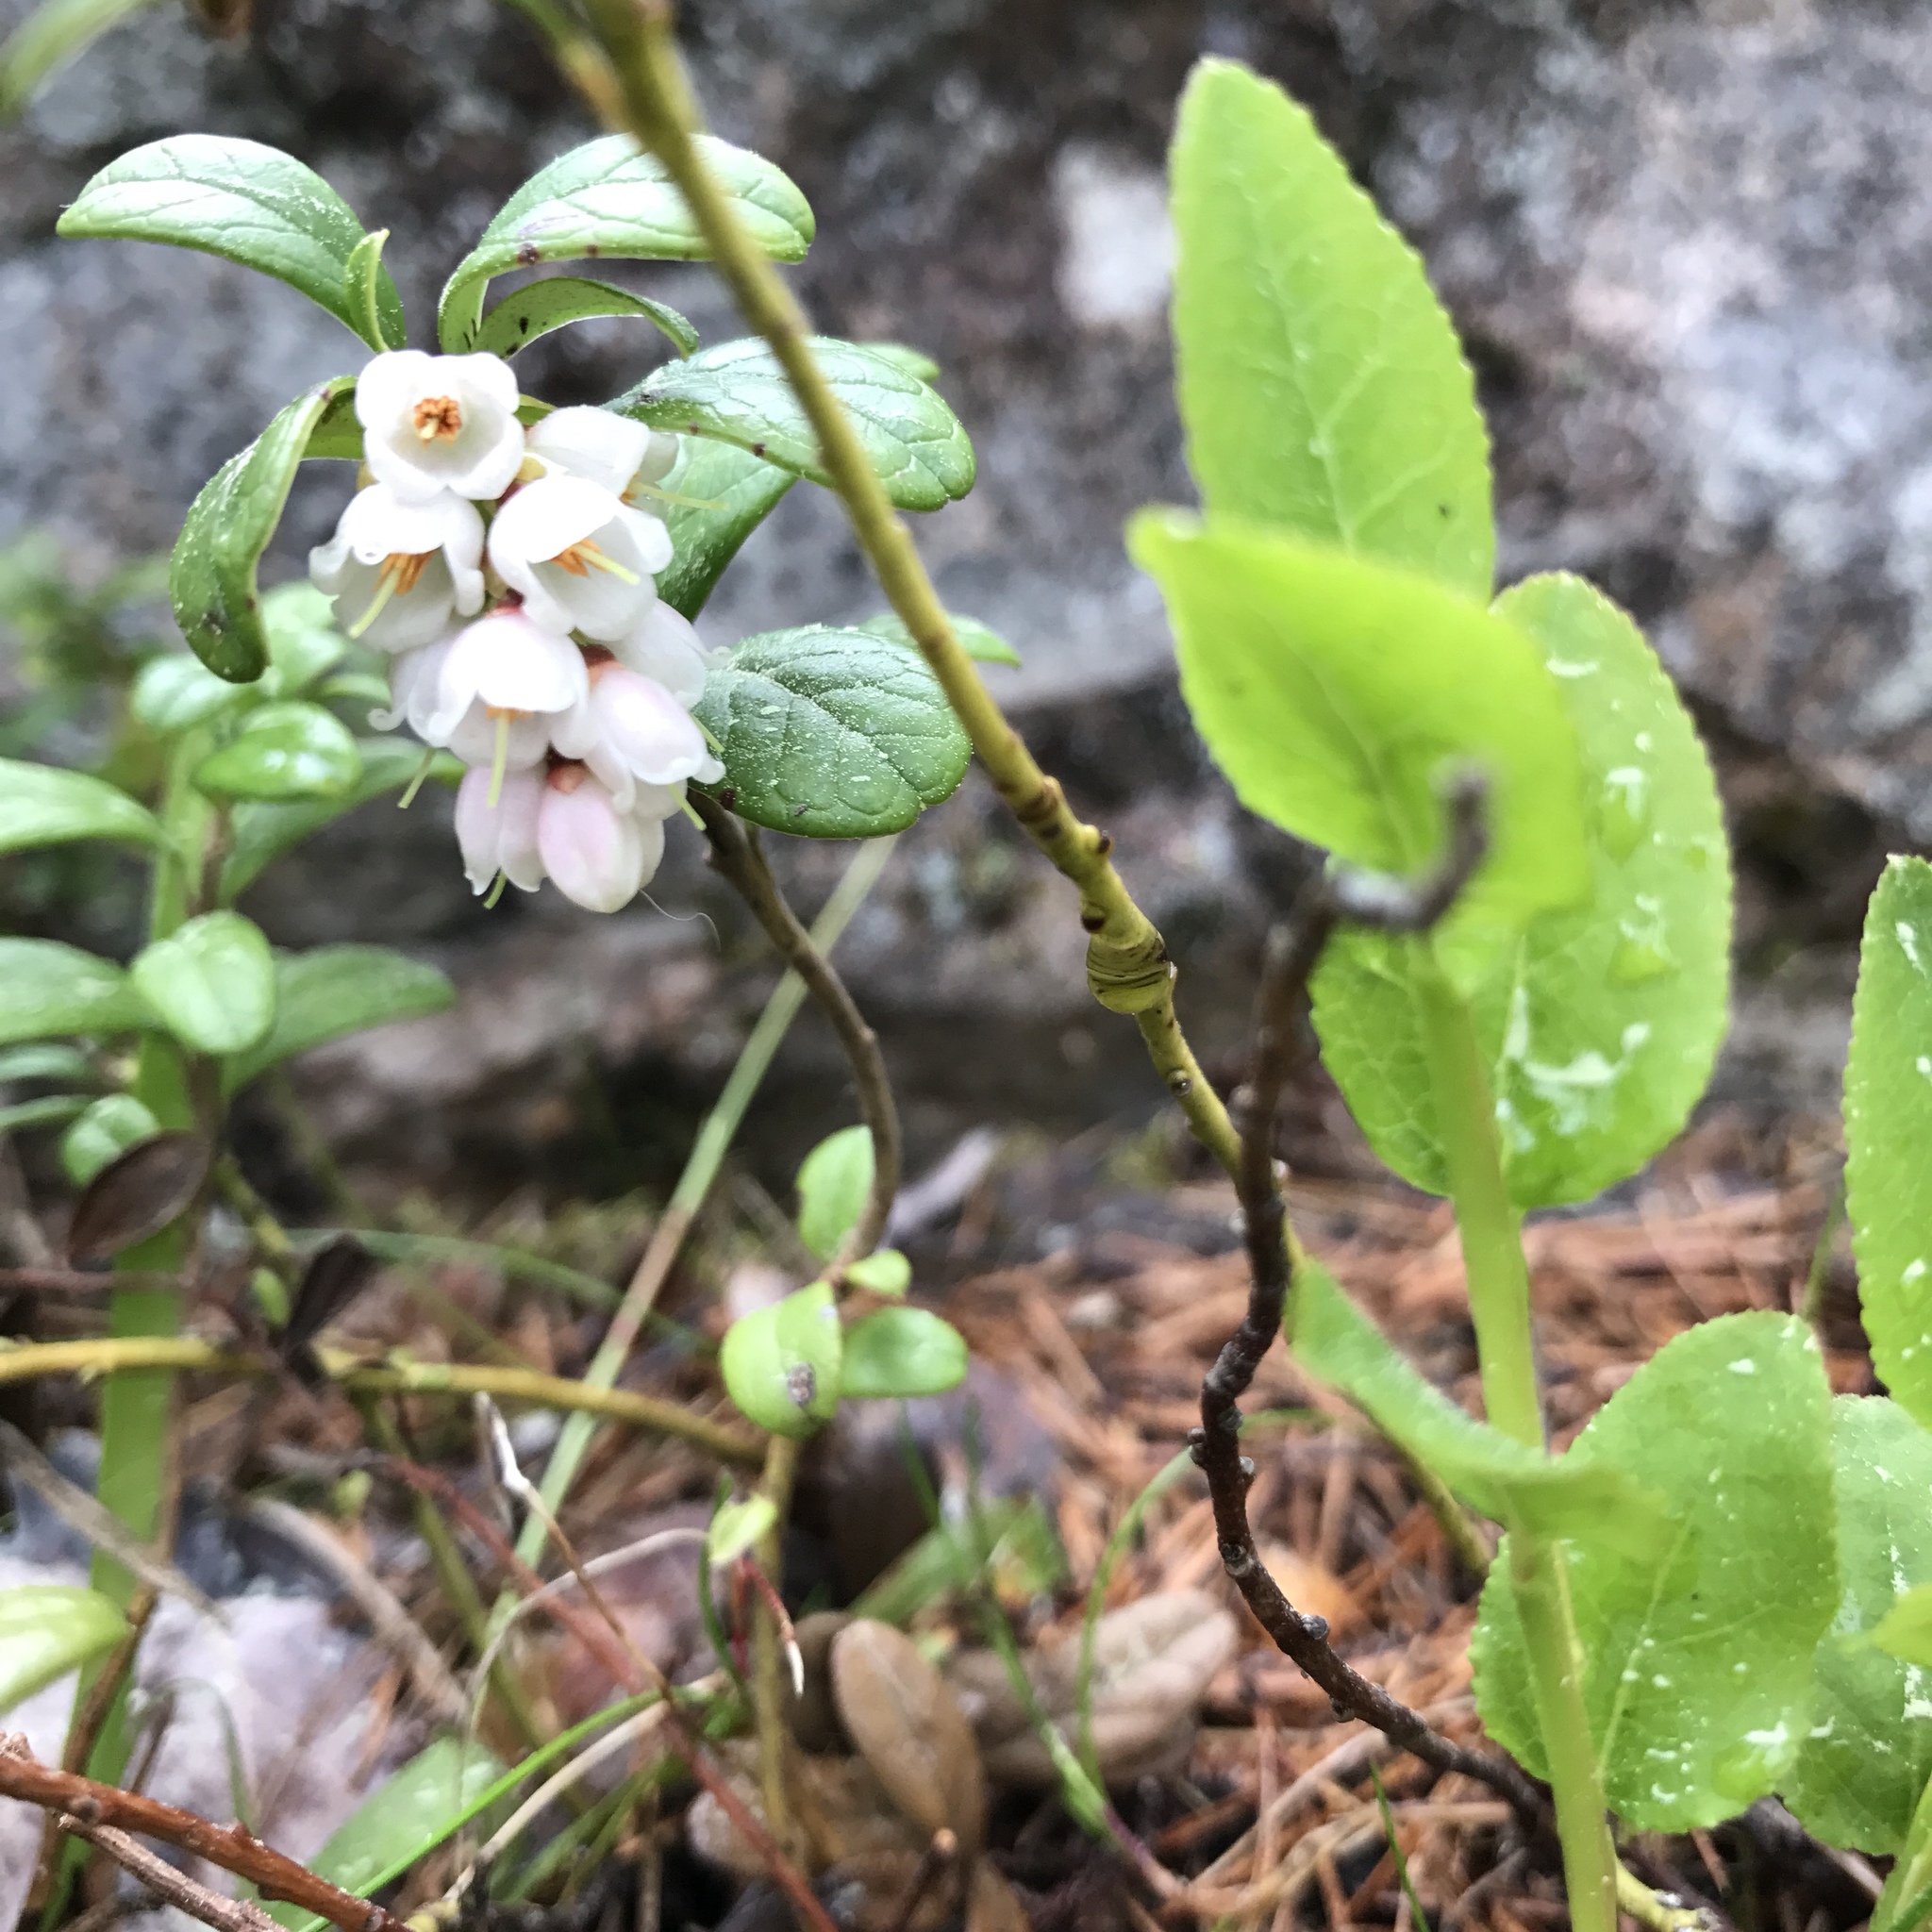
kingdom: Plantae
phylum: Tracheophyta
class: Magnoliopsida
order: Ericales
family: Ericaceae
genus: Vaccinium
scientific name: Vaccinium vitis-idaea
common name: Cowberry
